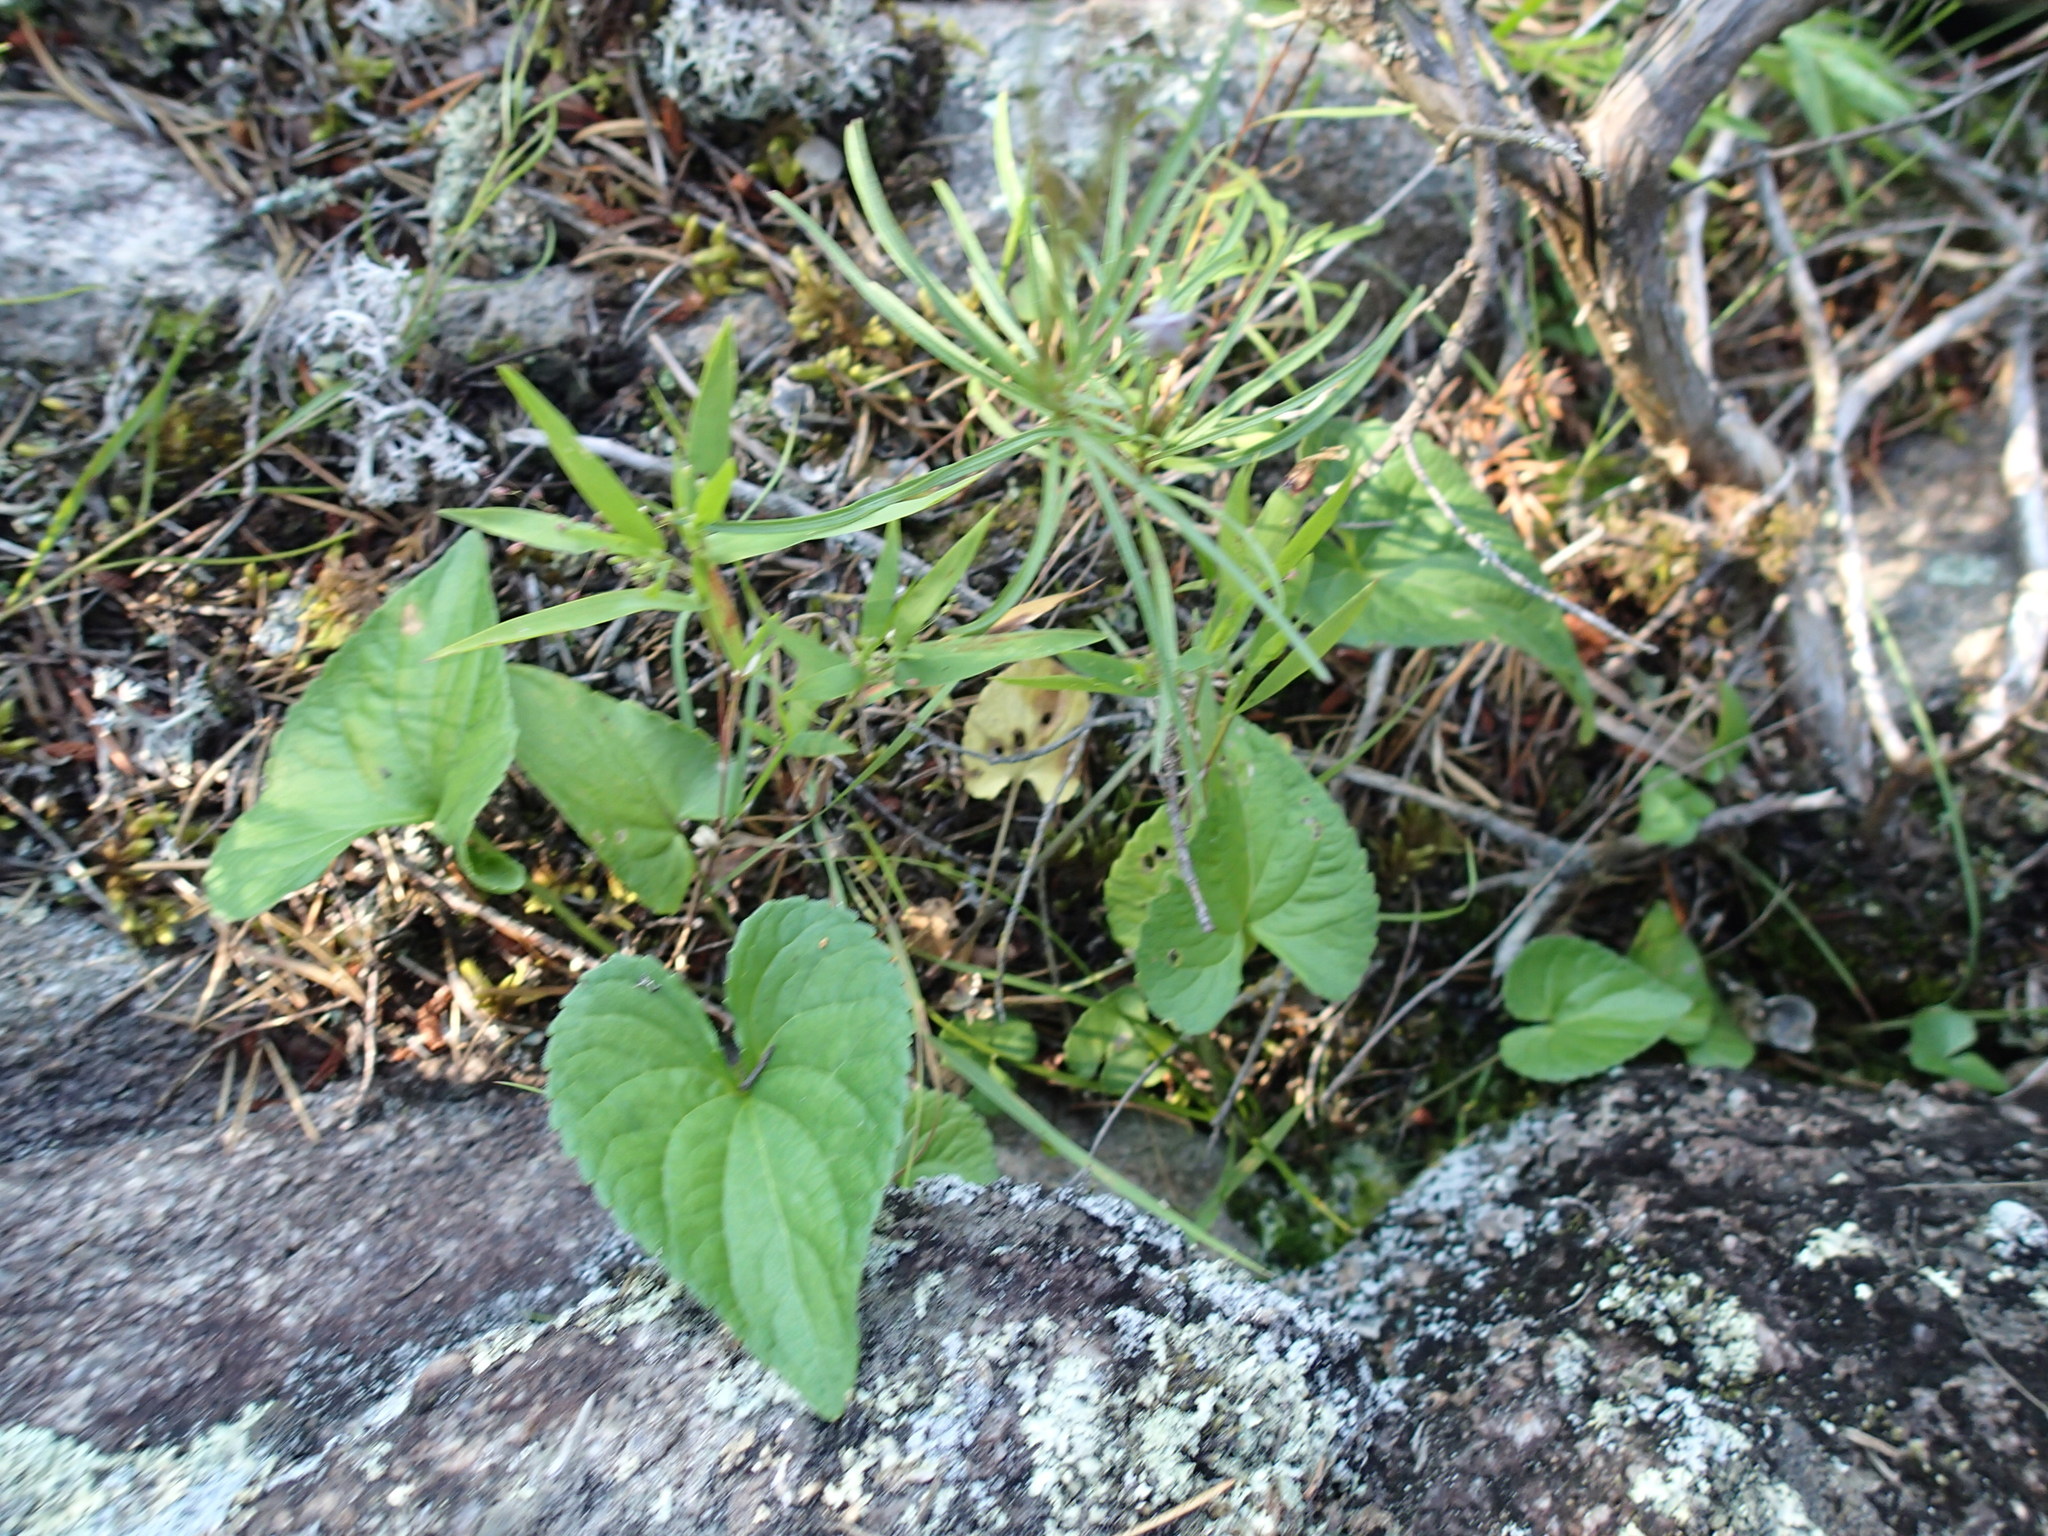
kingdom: Plantae
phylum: Tracheophyta
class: Magnoliopsida
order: Malpighiales
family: Violaceae
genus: Viola
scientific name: Viola novae-angliae
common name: New england blue violet
